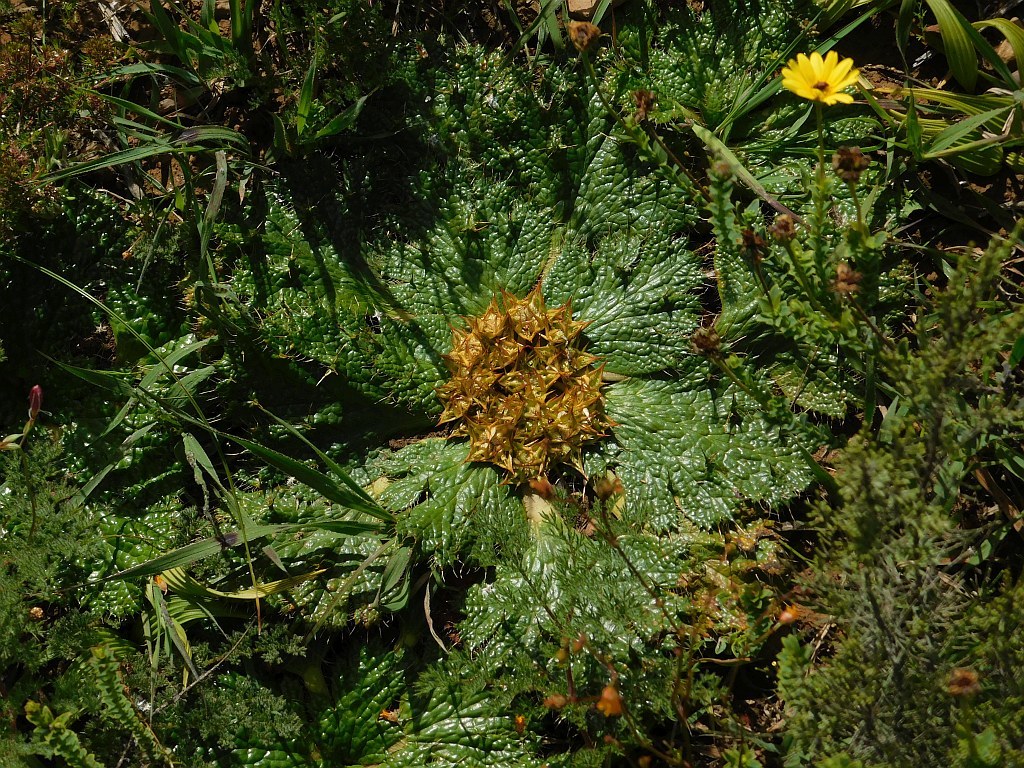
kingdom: Plantae
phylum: Tracheophyta
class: Magnoliopsida
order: Apiales
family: Apiaceae
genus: Arctopus
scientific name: Arctopus echinatus
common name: Platdoring
